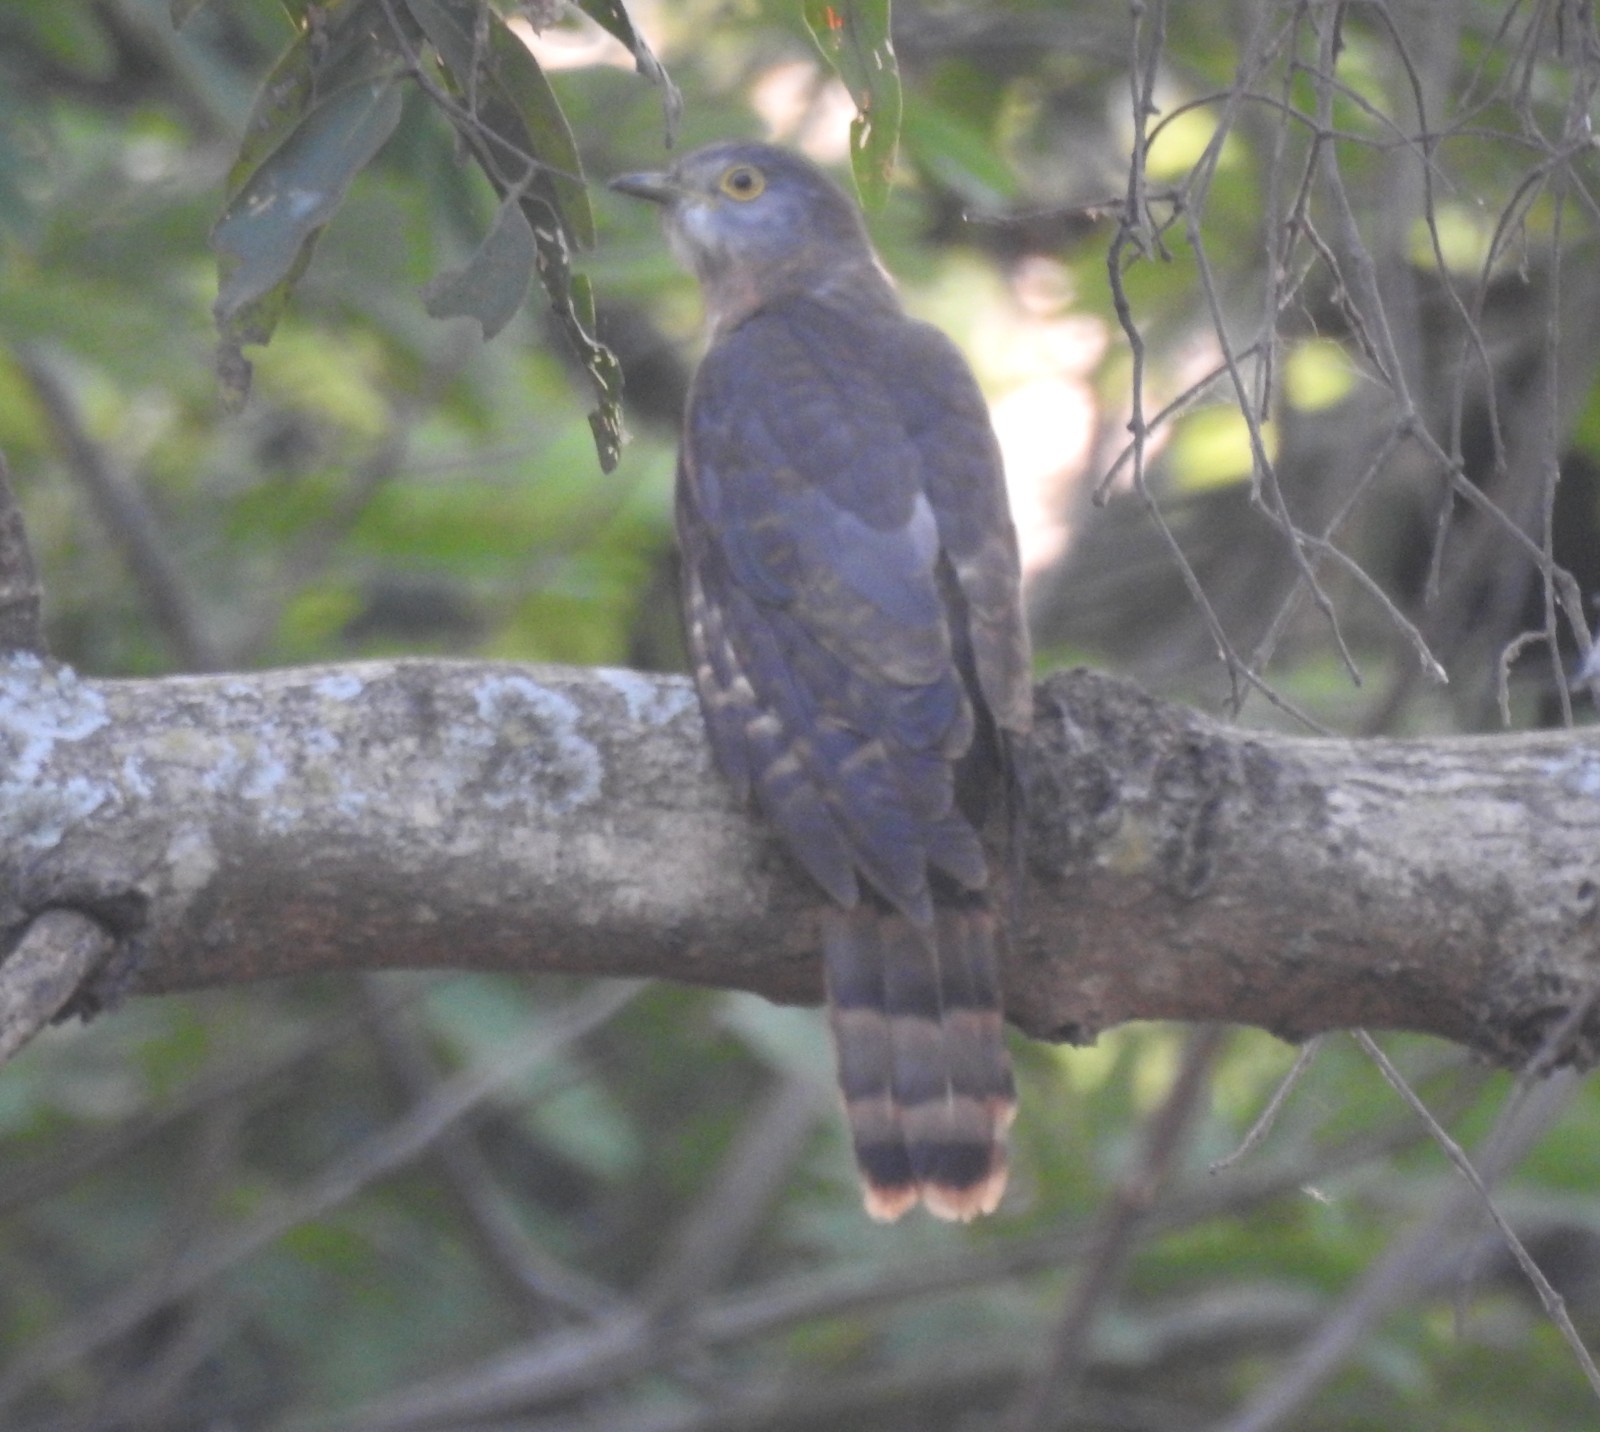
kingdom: Animalia
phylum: Chordata
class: Aves
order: Cuculiformes
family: Cuculidae
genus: Cuculus
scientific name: Cuculus varius
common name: Common hawk cuckoo
